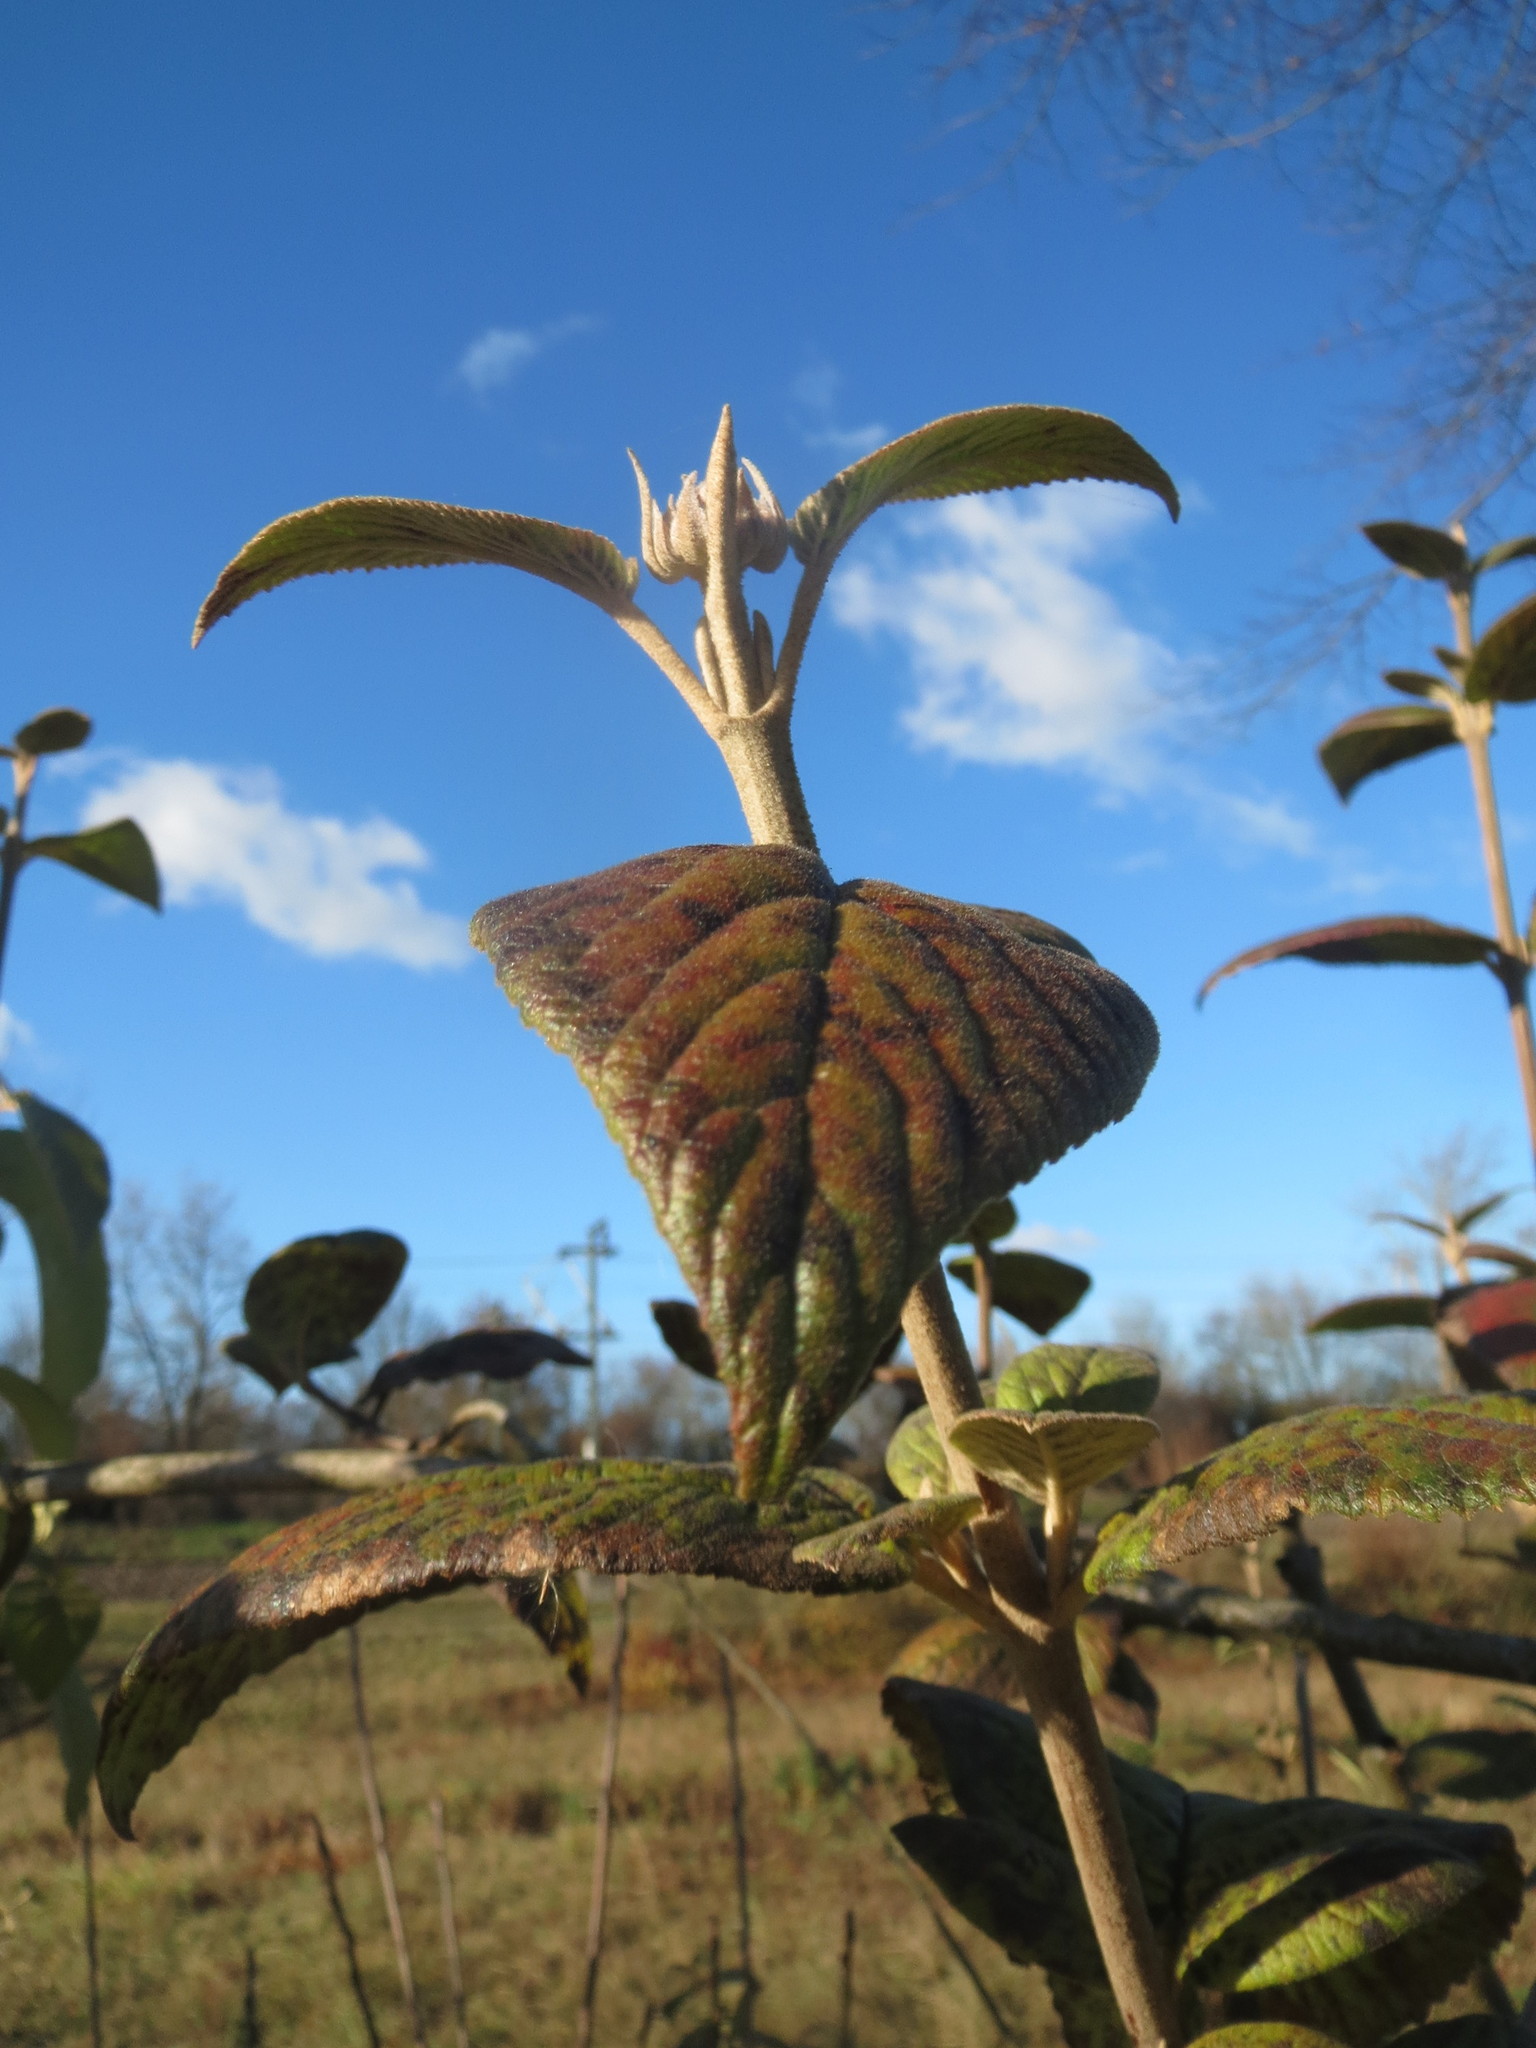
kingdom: Plantae
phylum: Tracheophyta
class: Magnoliopsida
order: Dipsacales
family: Viburnaceae
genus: Viburnum
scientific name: Viburnum lantana
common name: Wayfaring tree
